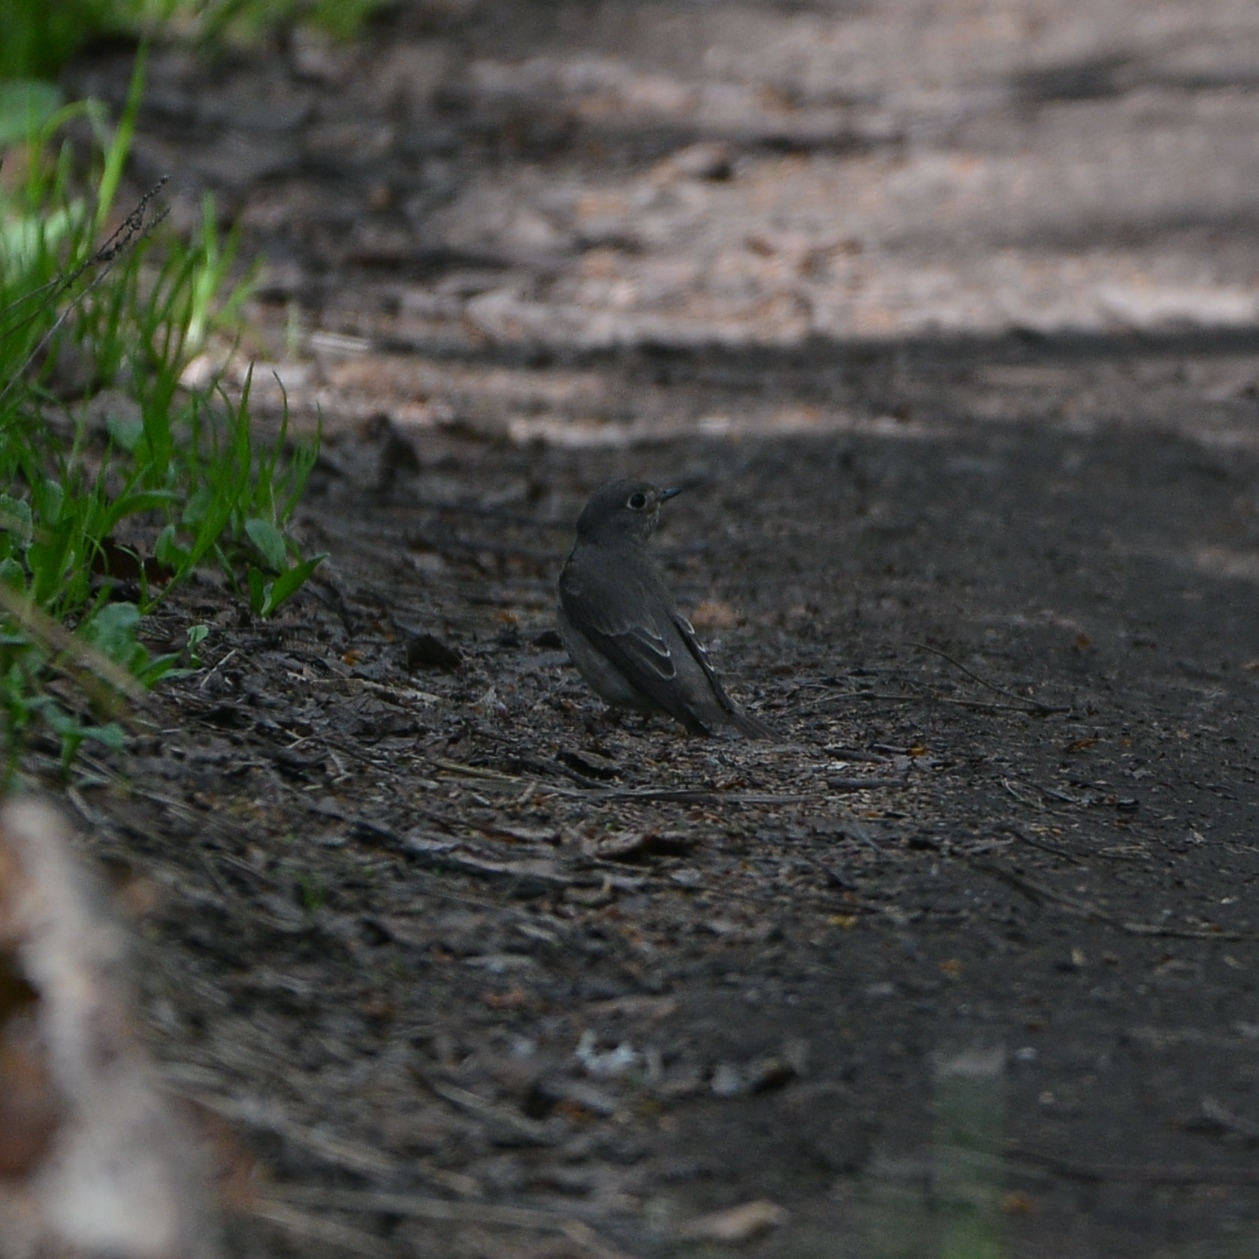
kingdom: Animalia
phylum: Chordata
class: Aves
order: Passeriformes
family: Muscicapidae
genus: Muscicapa
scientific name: Muscicapa sibirica
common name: Dark-sided flycatcher
